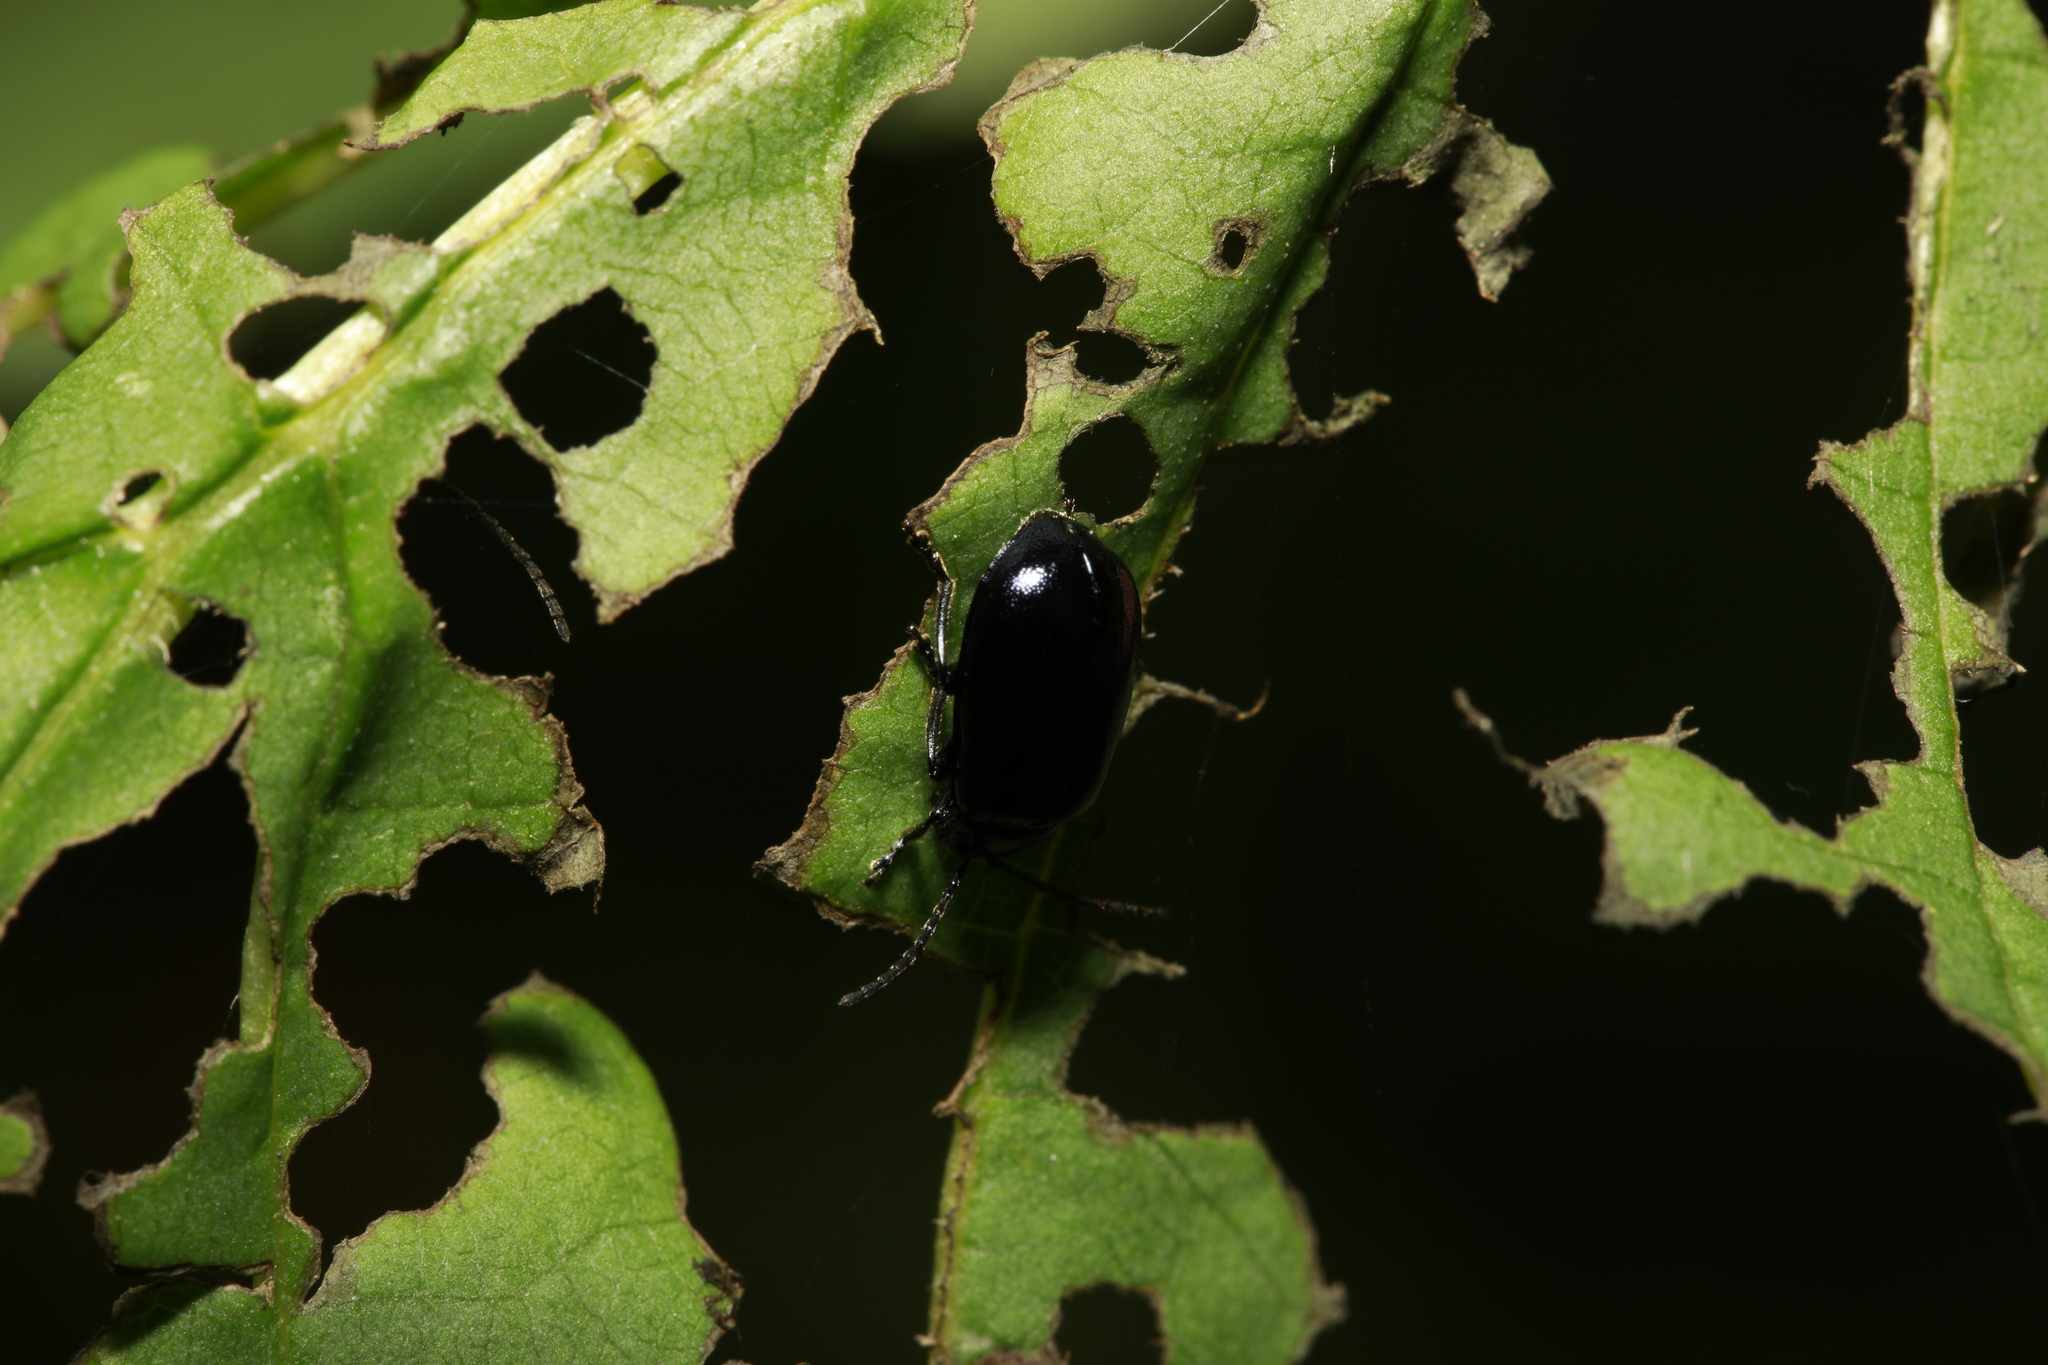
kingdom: Animalia
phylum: Arthropoda
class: Insecta
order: Coleoptera
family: Chrysomelidae
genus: Agelastica
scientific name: Agelastica alni
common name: Alder leaf beetle
